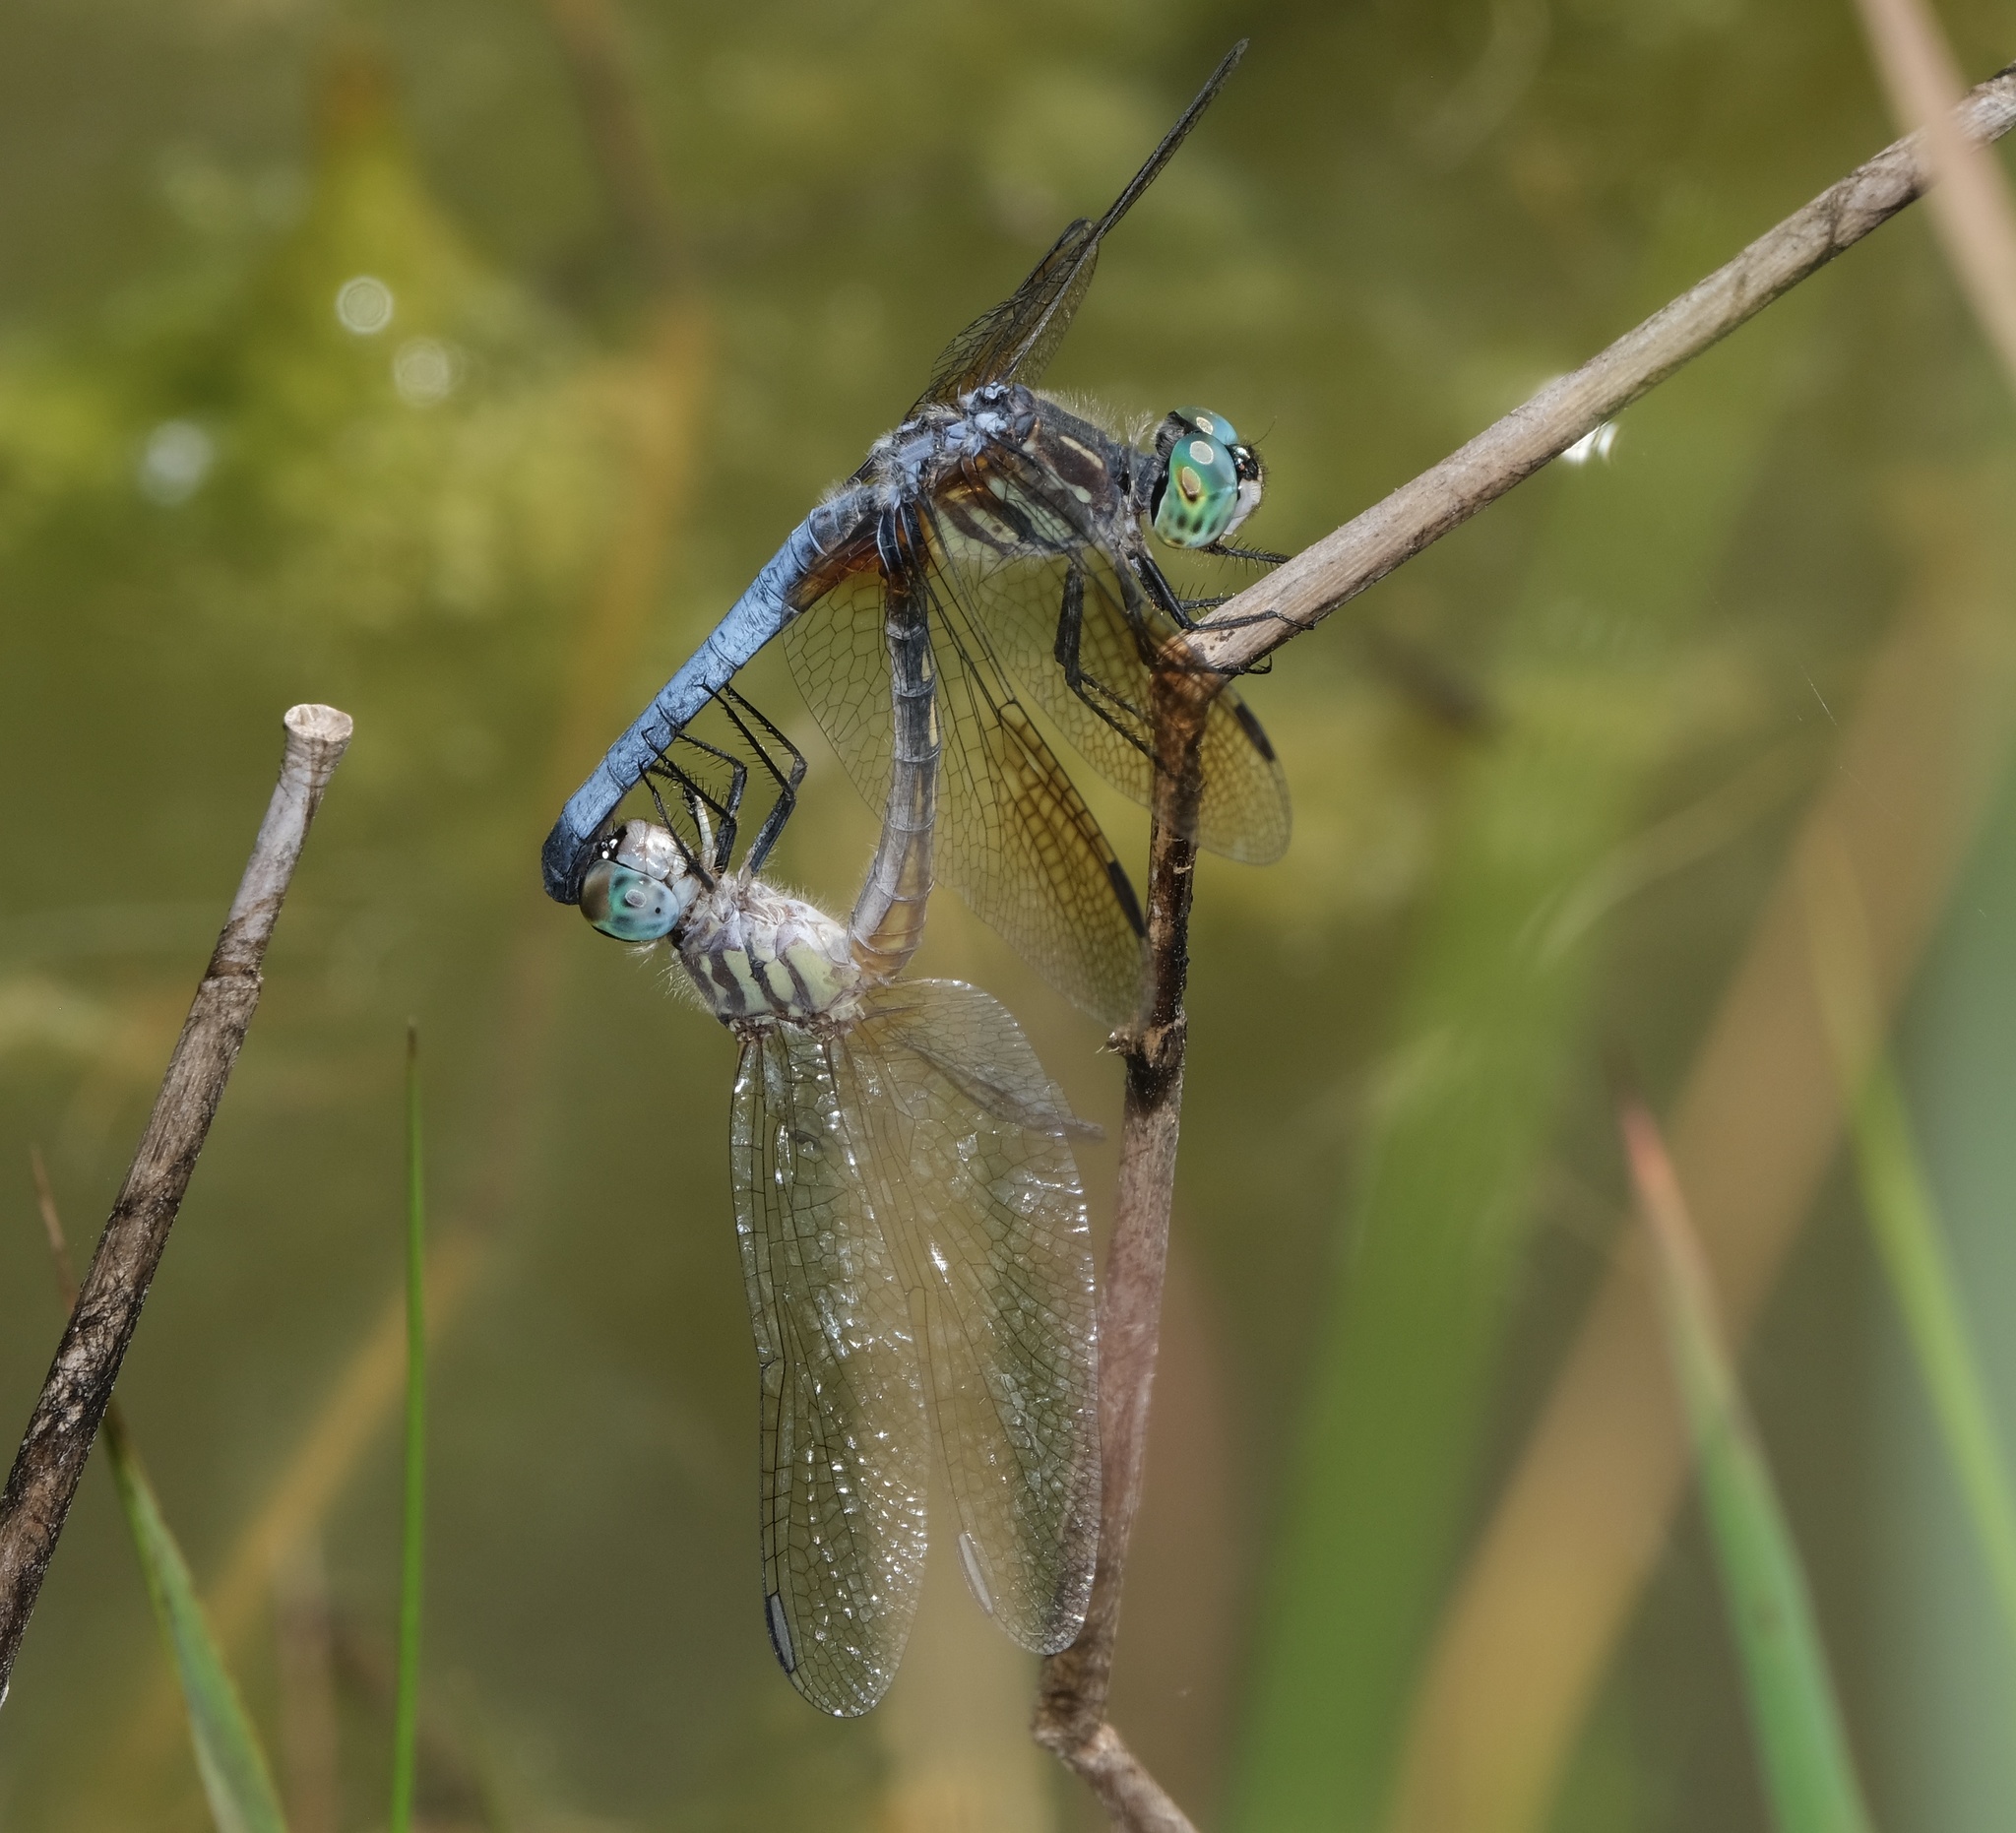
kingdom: Animalia
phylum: Arthropoda
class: Insecta
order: Odonata
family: Libellulidae
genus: Pachydiplax
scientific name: Pachydiplax longipennis
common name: Blue dasher
